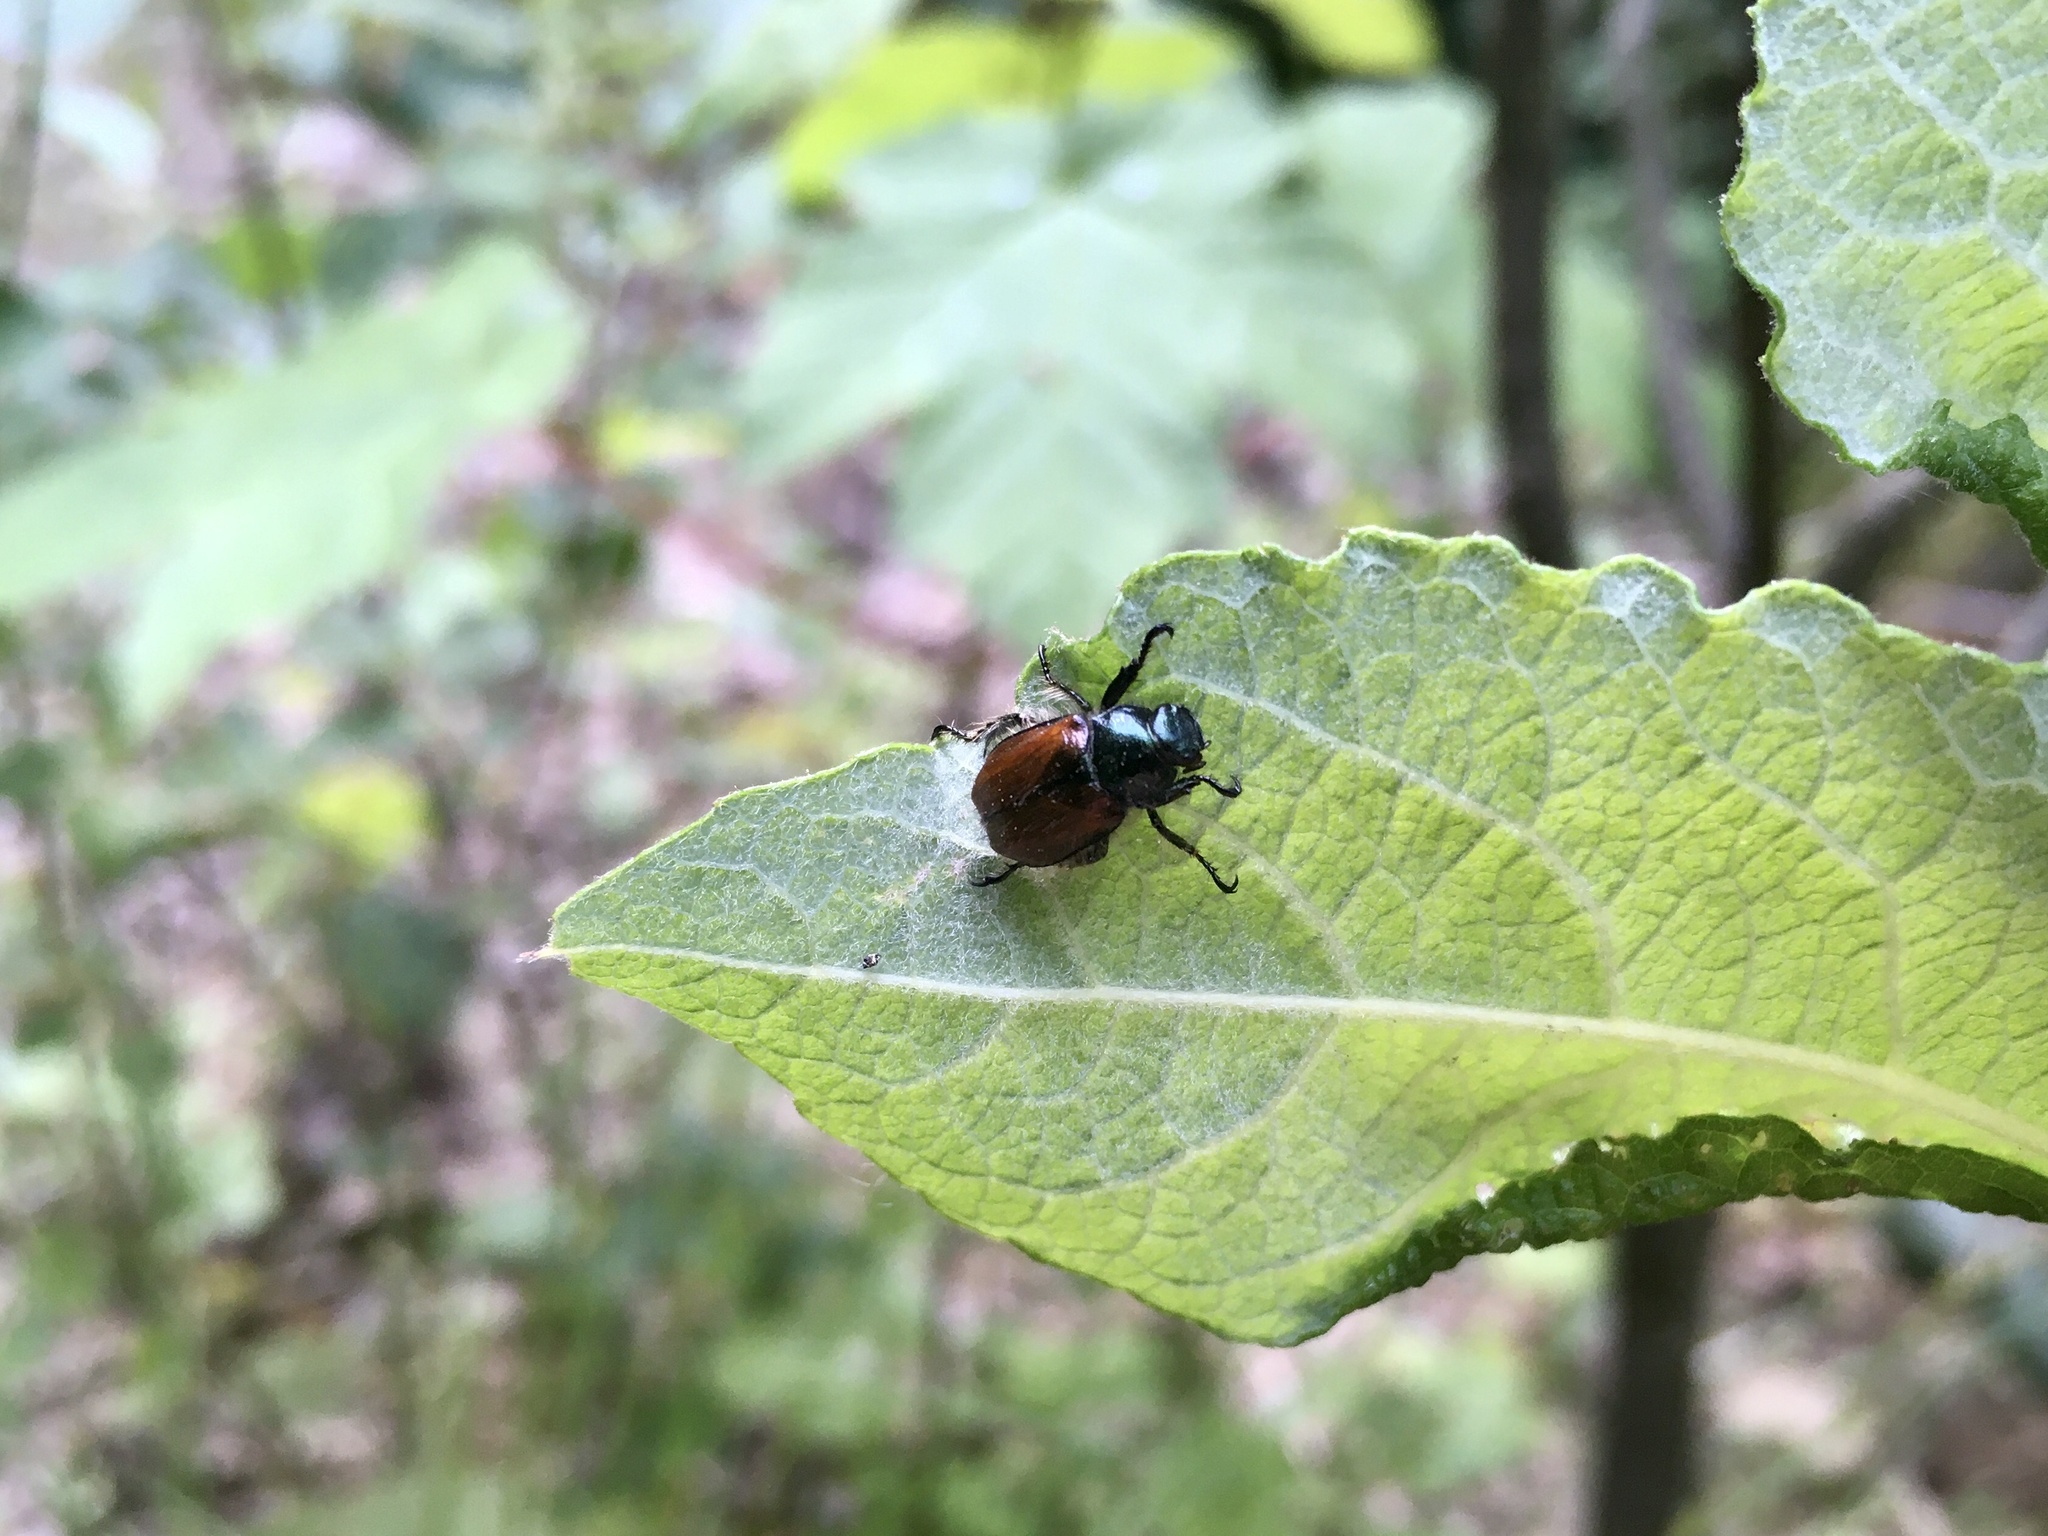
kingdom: Animalia
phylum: Arthropoda
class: Insecta
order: Coleoptera
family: Scarabaeidae
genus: Phyllopertha
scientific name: Phyllopertha horticola
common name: Garden chafer
